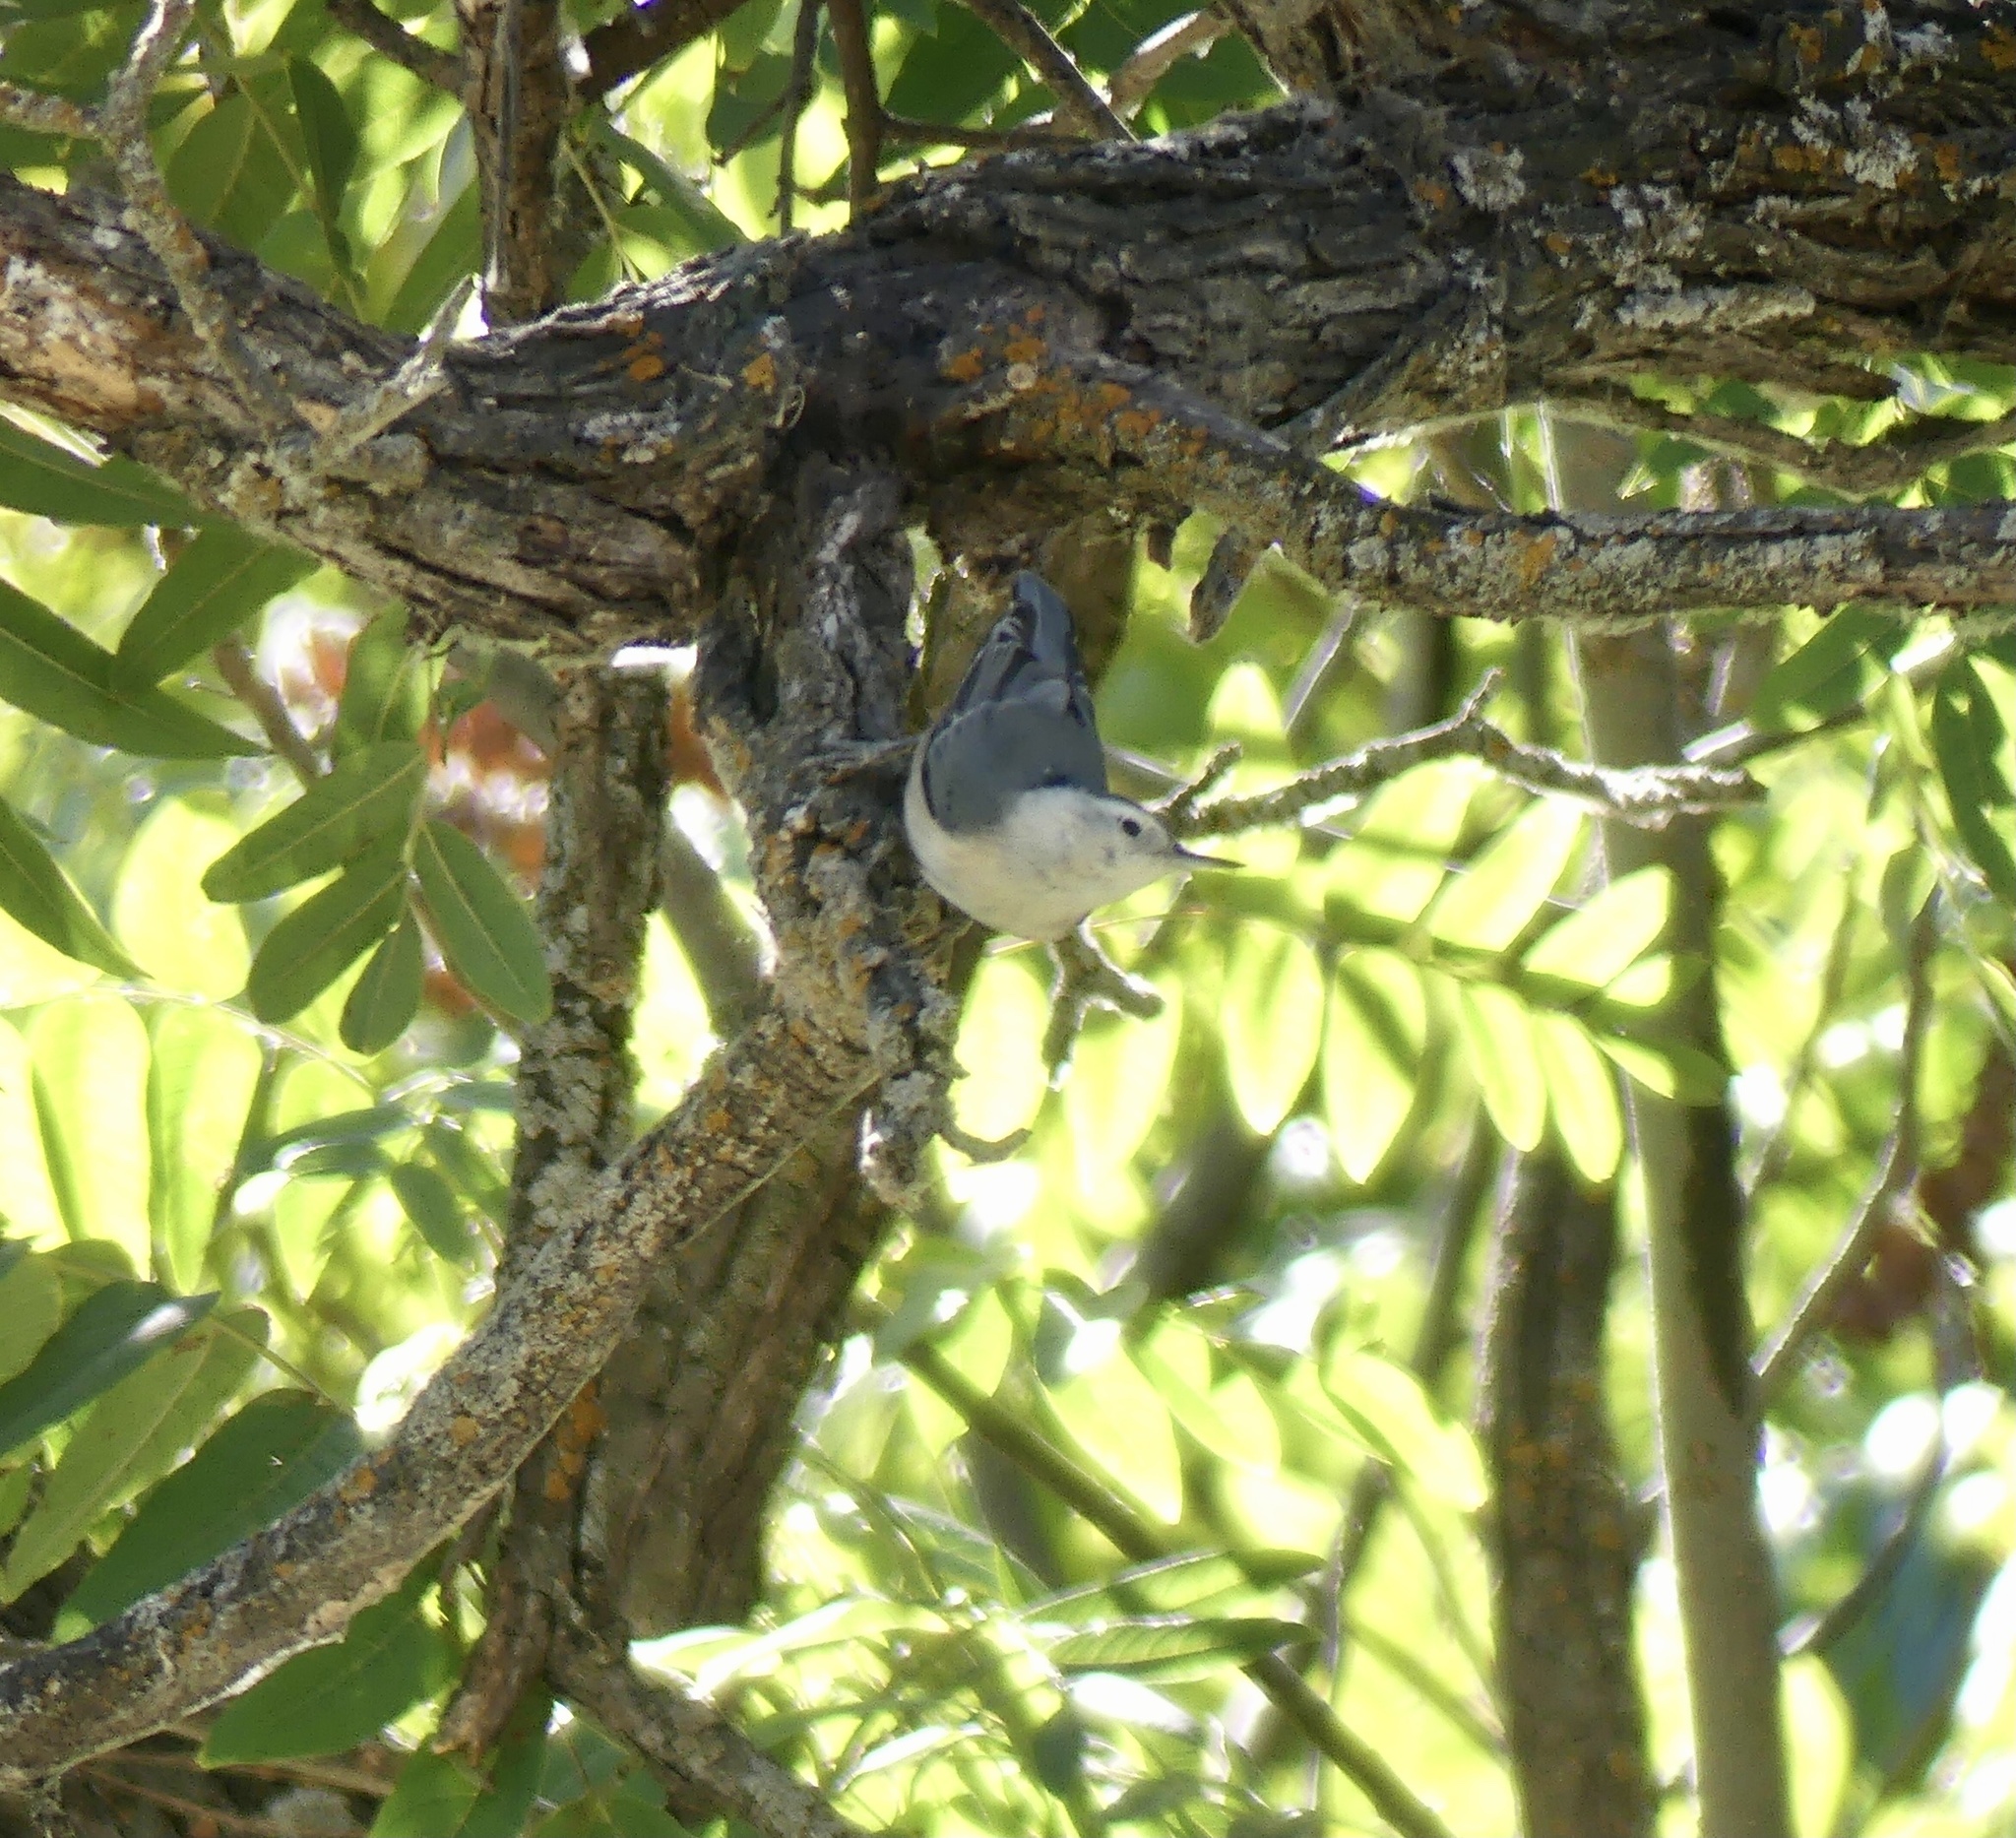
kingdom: Animalia
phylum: Chordata
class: Aves
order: Passeriformes
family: Sittidae
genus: Sitta
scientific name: Sitta carolinensis
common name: White-breasted nuthatch
